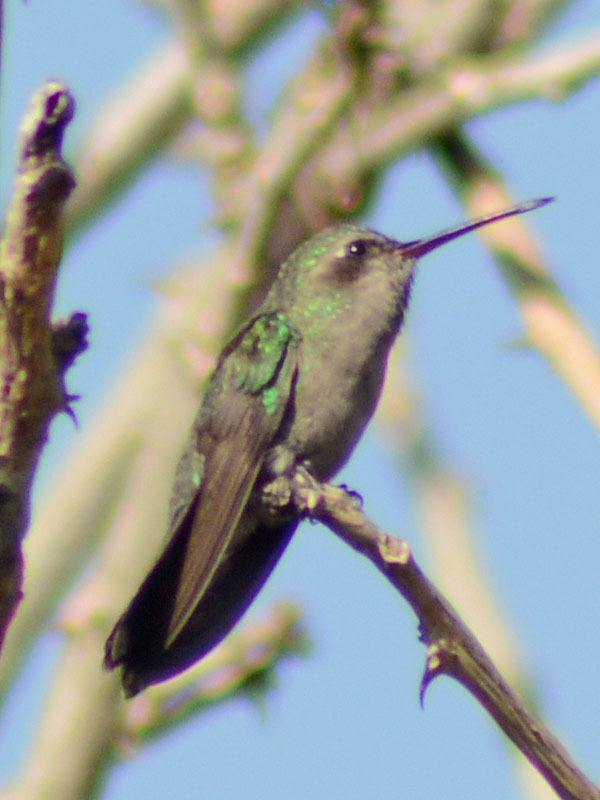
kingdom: Animalia
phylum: Chordata
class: Aves
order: Apodiformes
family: Trochilidae
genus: Cynanthus
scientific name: Cynanthus latirostris
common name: Broad-billed hummingbird
